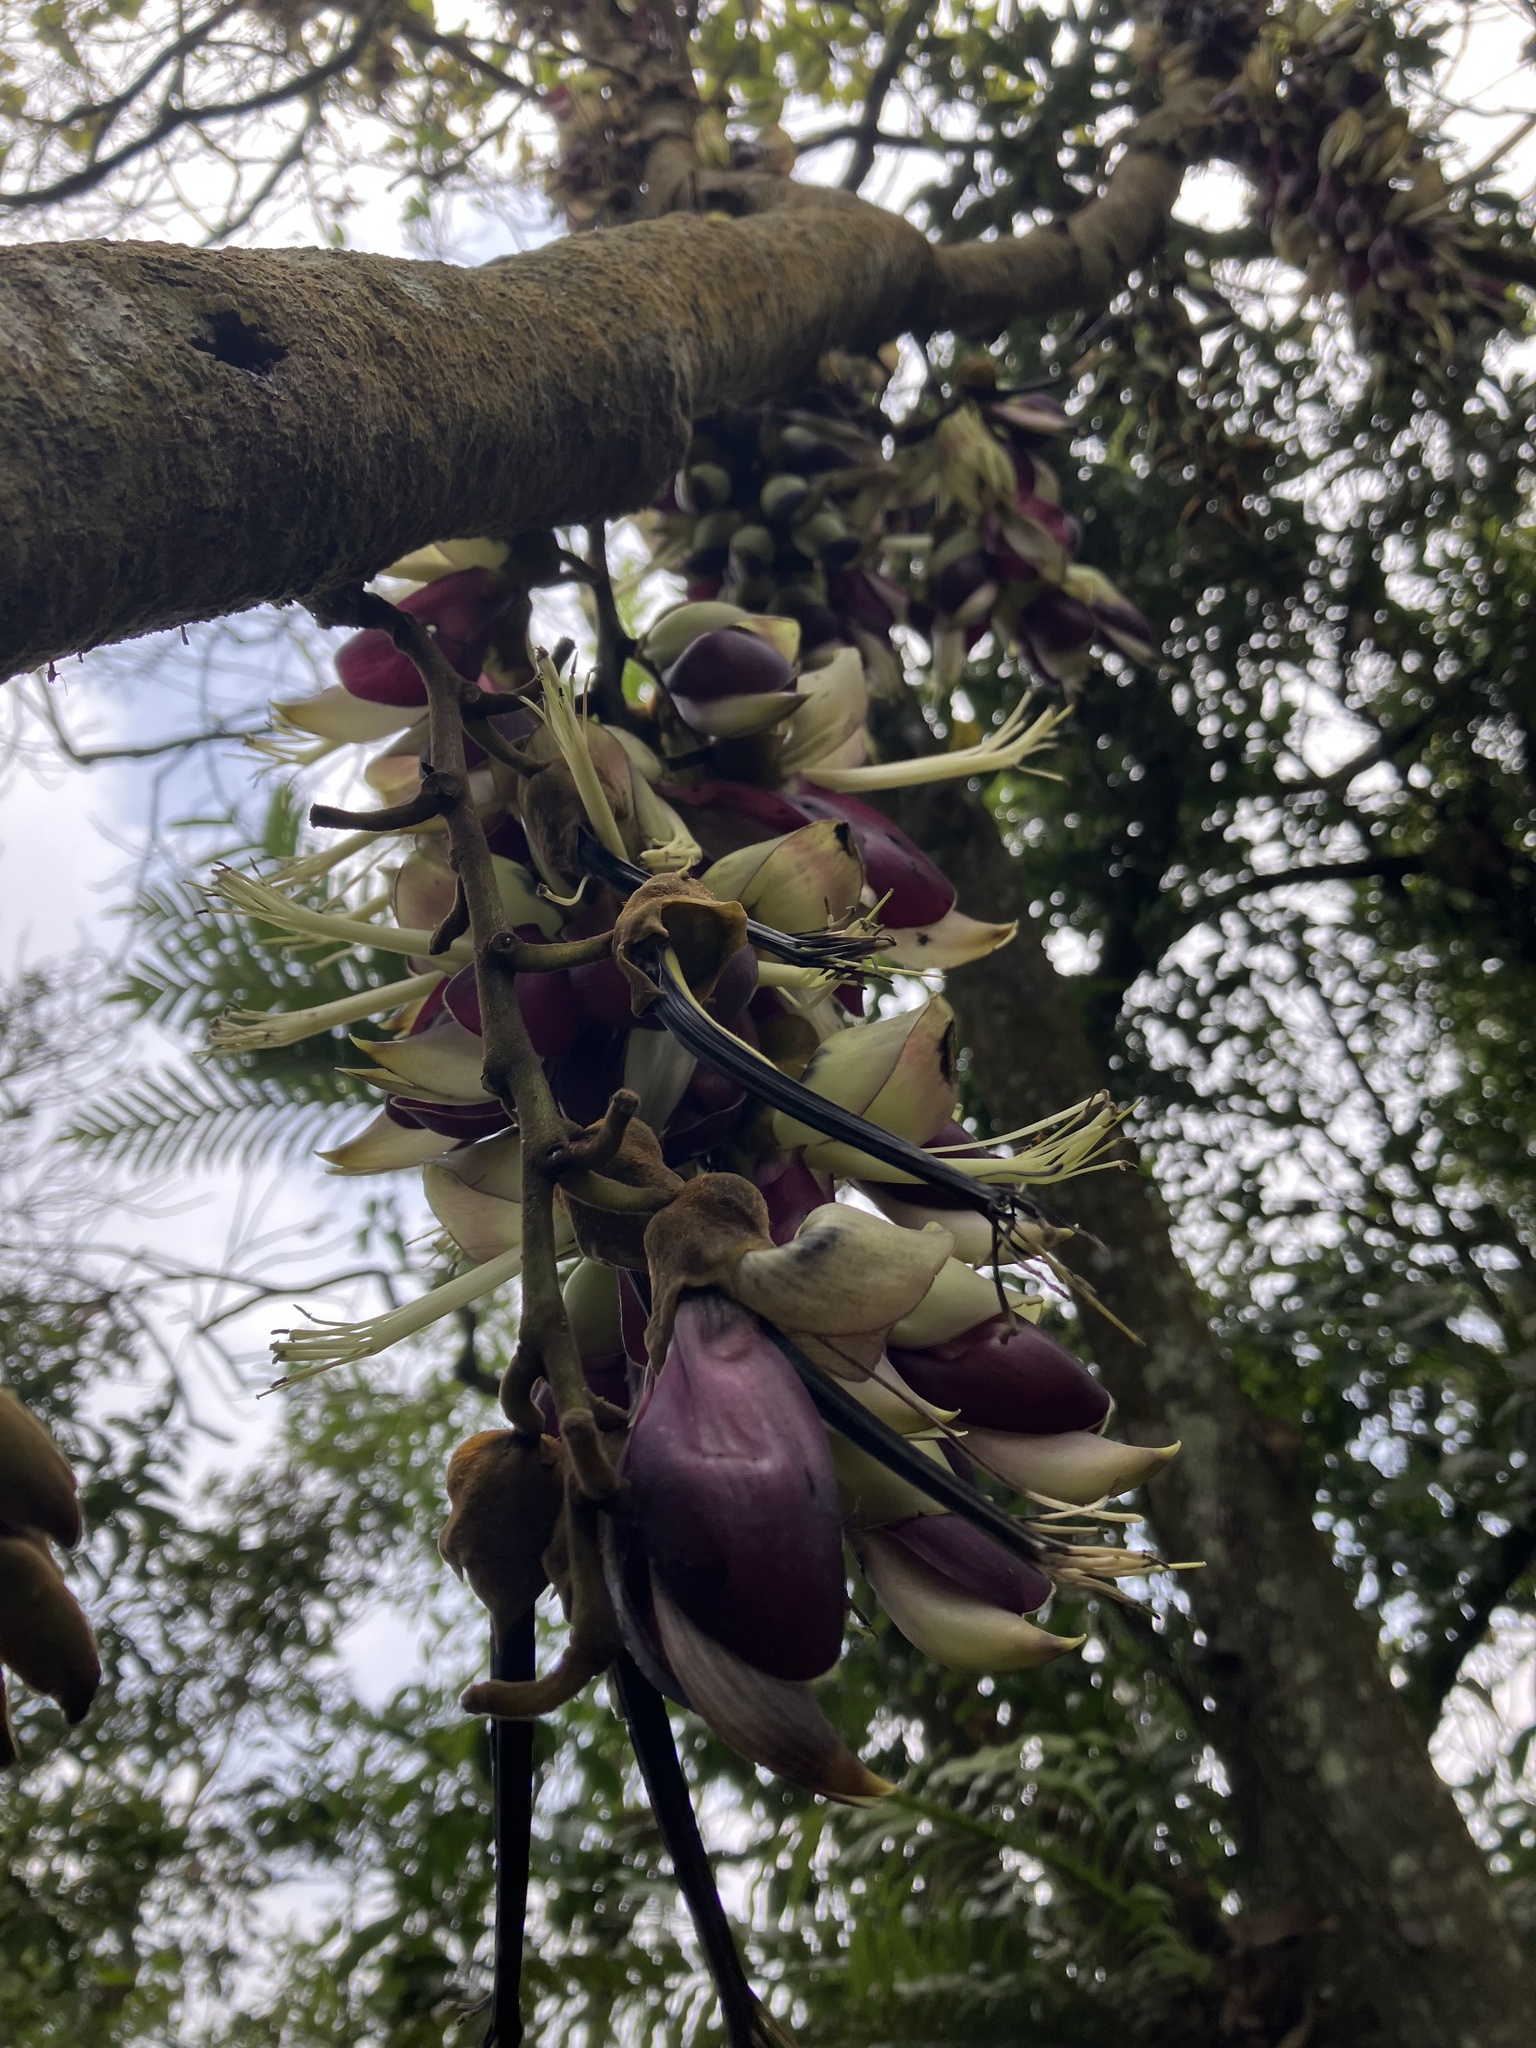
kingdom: Plantae
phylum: Tracheophyta
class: Magnoliopsida
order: Fabales
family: Fabaceae
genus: Mucuna
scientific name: Mucuna macrocarpa
